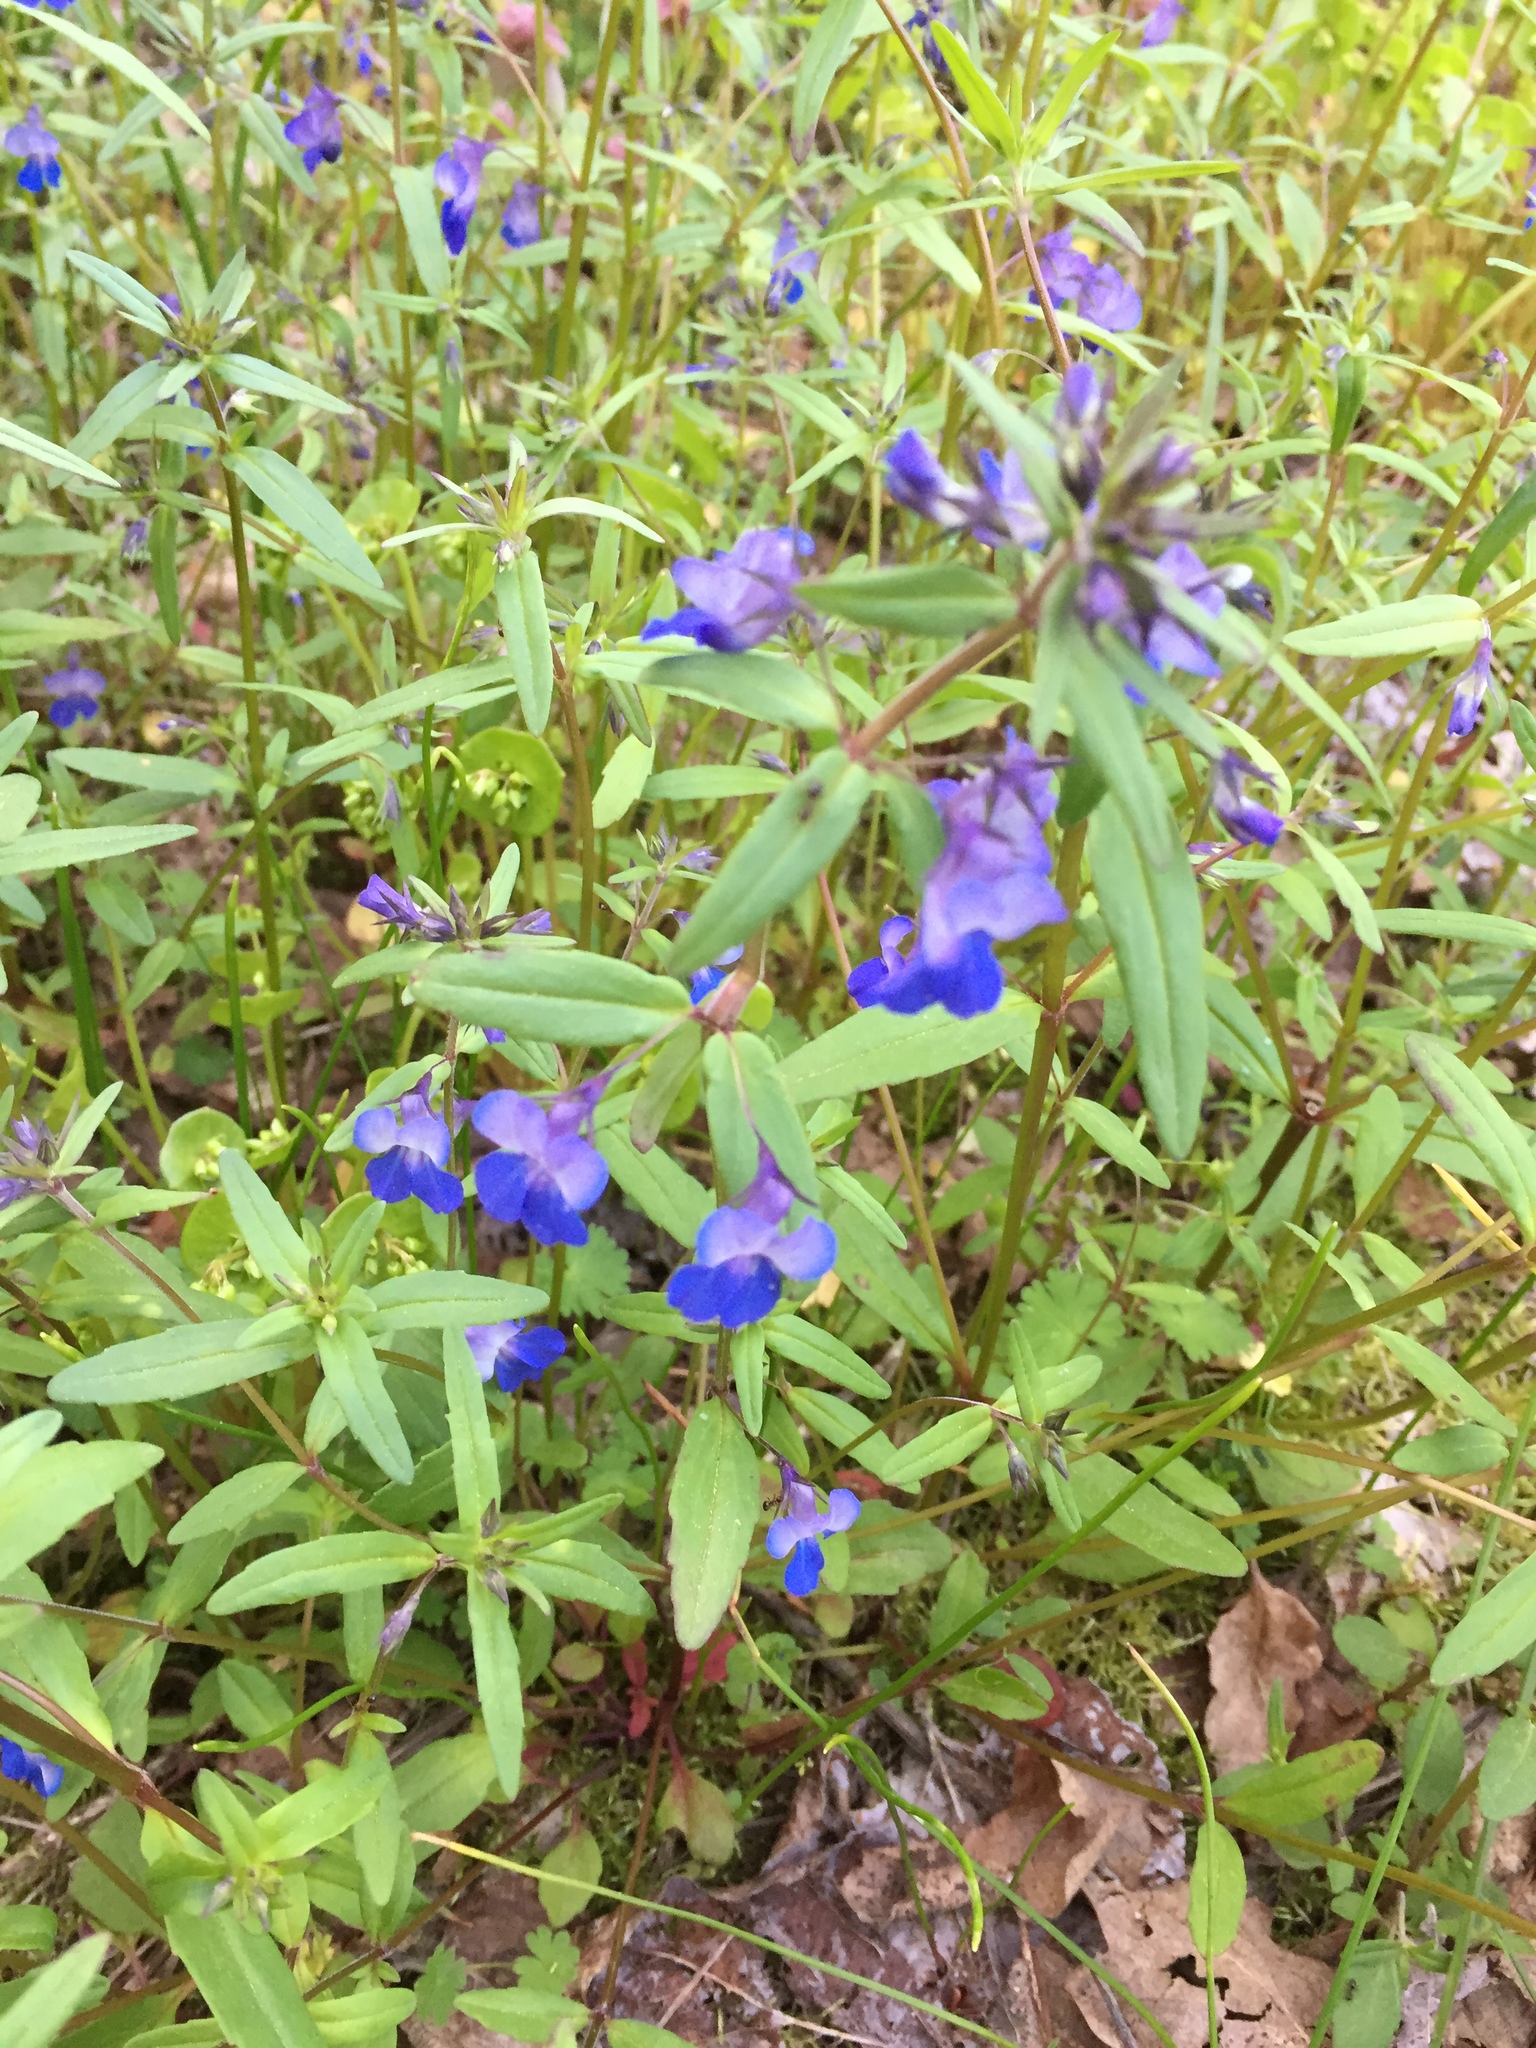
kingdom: Plantae
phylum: Tracheophyta
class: Magnoliopsida
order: Lamiales
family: Plantaginaceae
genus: Collinsia
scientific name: Collinsia grandiflora
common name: Large-flower blue-eyed-mary
